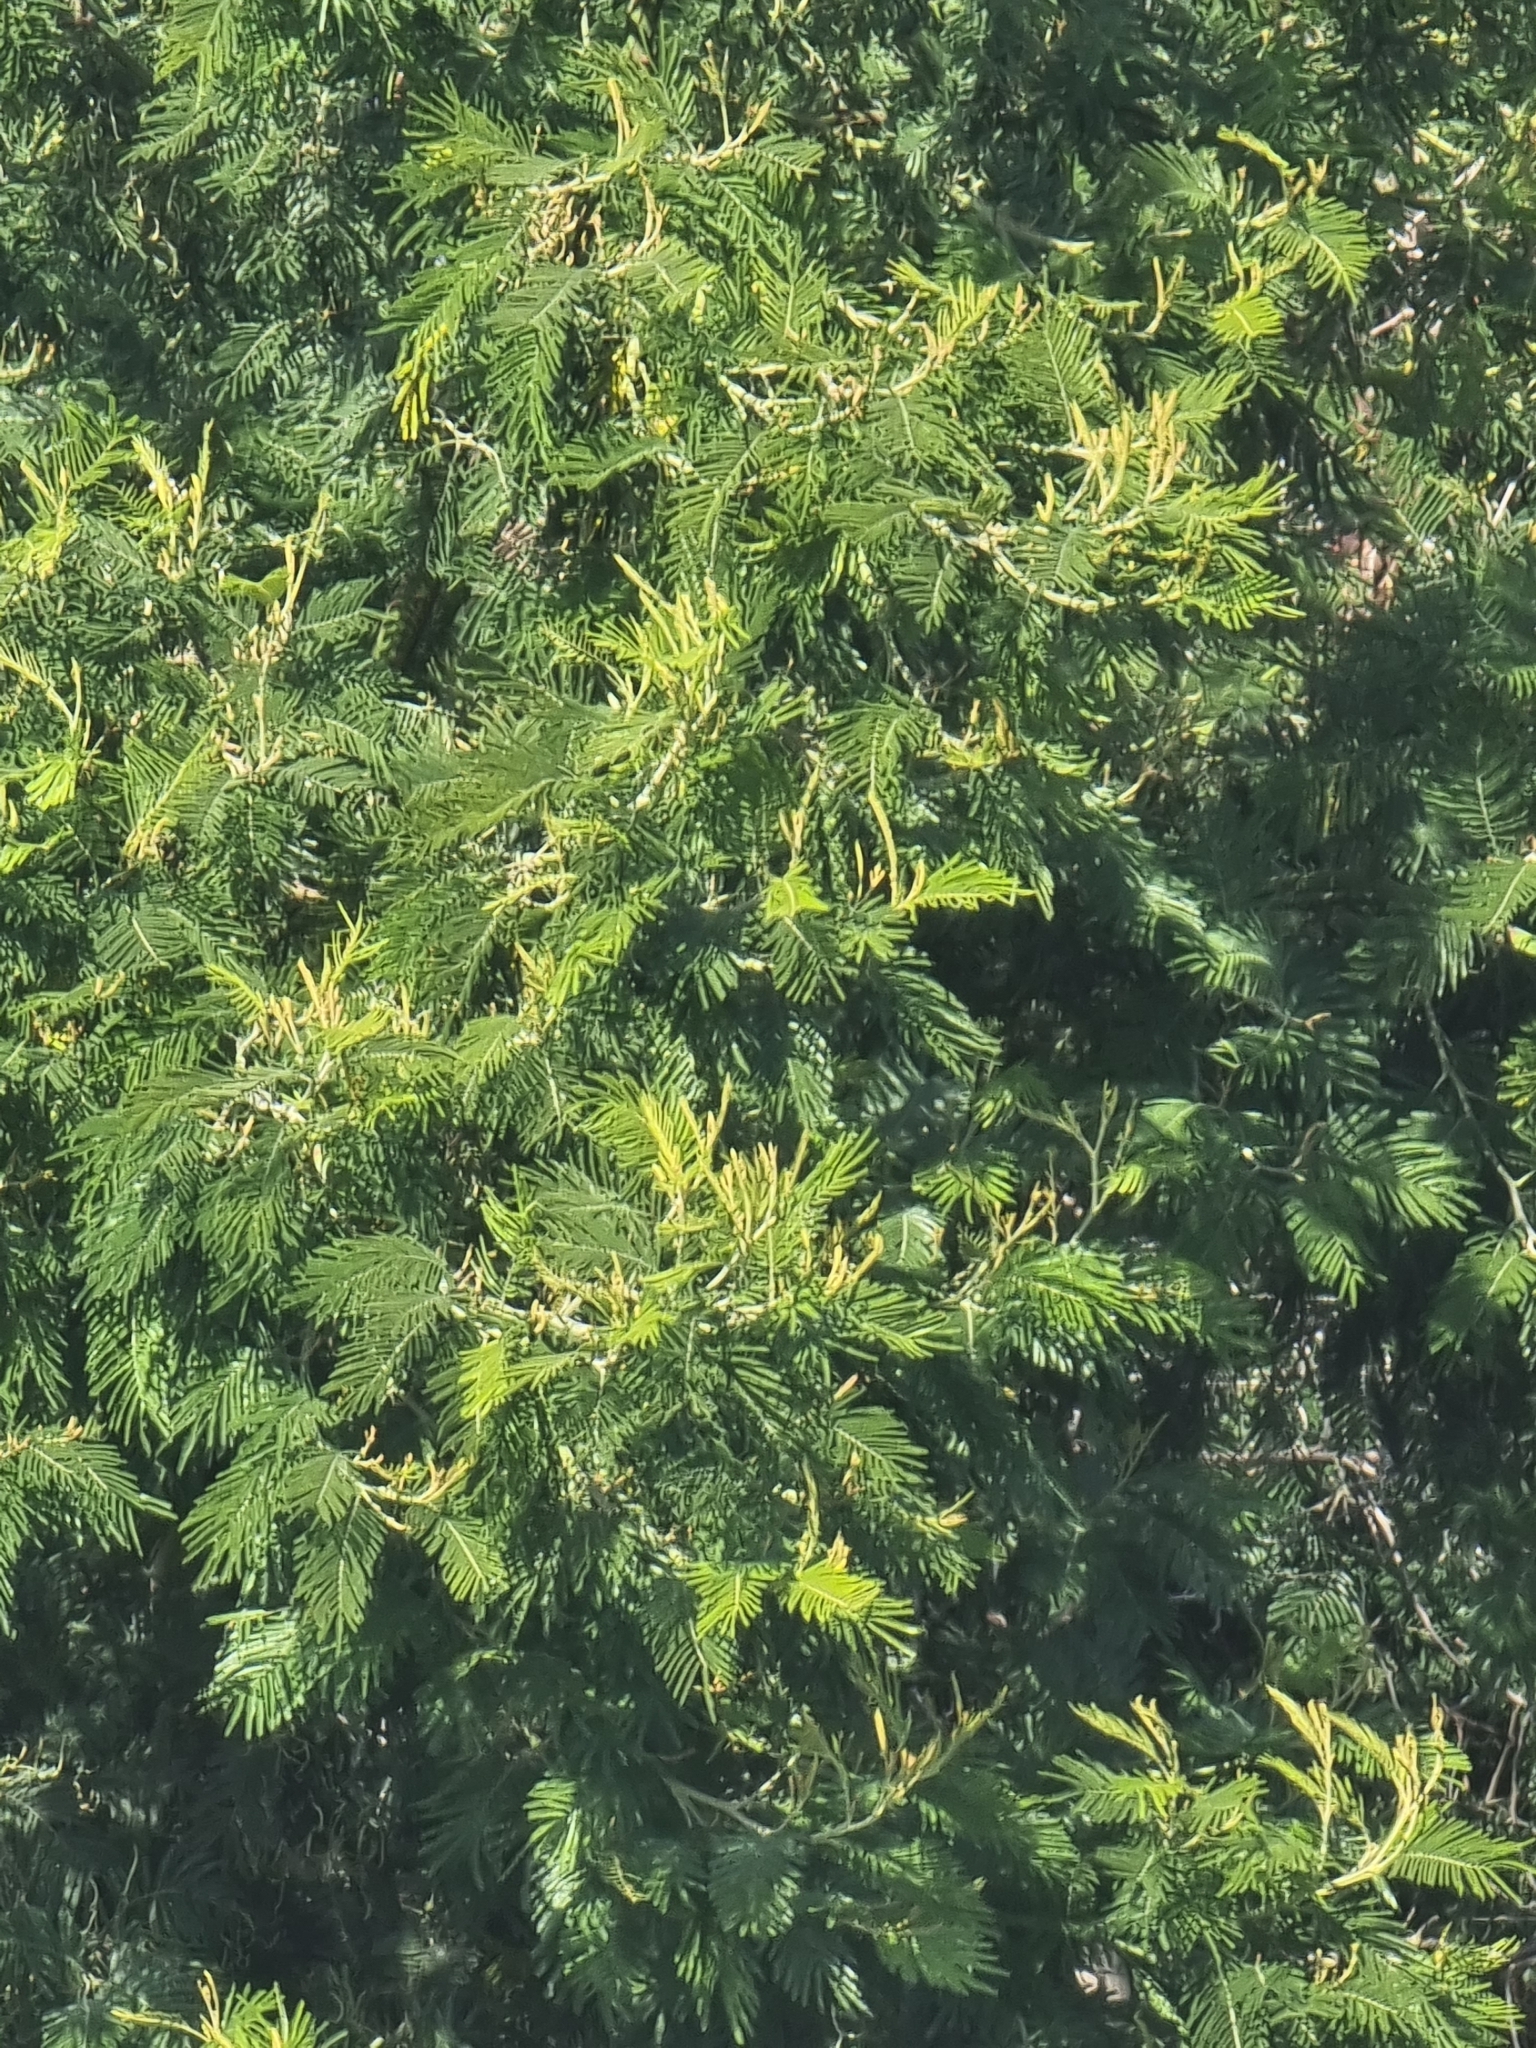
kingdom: Plantae
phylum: Tracheophyta
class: Magnoliopsida
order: Fabales
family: Fabaceae
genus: Acacia
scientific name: Acacia mearnsii
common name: Black wattle
